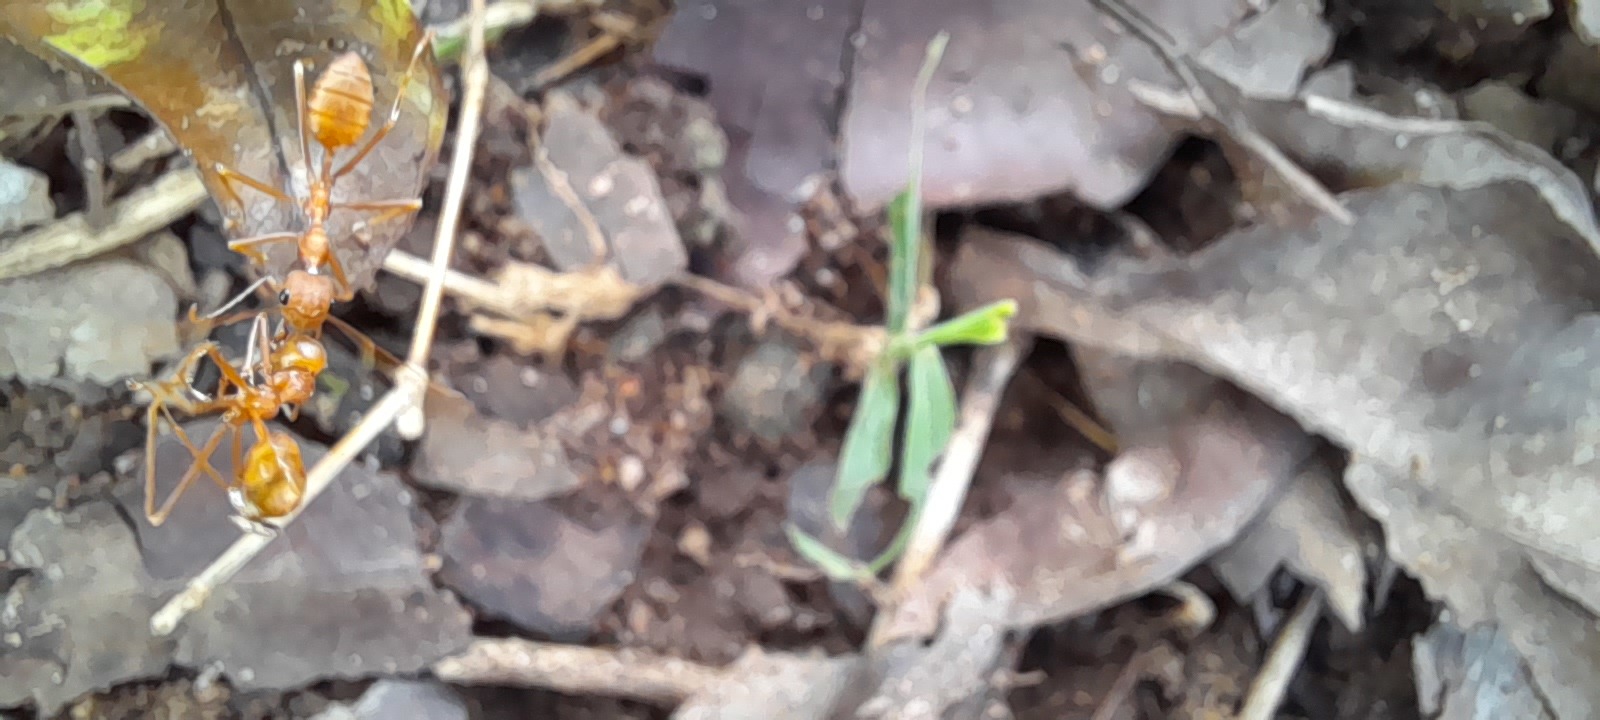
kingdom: Animalia
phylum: Arthropoda
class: Insecta
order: Hymenoptera
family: Formicidae
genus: Oecophylla
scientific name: Oecophylla smaragdina
